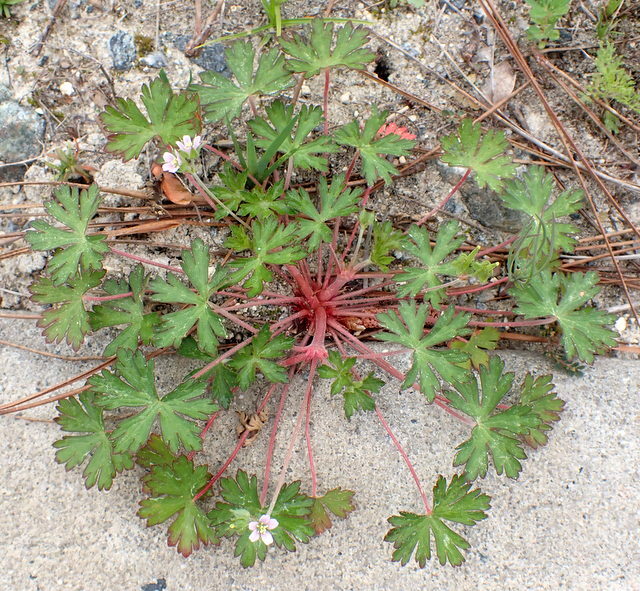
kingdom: Plantae
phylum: Tracheophyta
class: Magnoliopsida
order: Geraniales
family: Geraniaceae
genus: Geranium
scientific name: Geranium carolinianum
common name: Carolina crane's-bill
